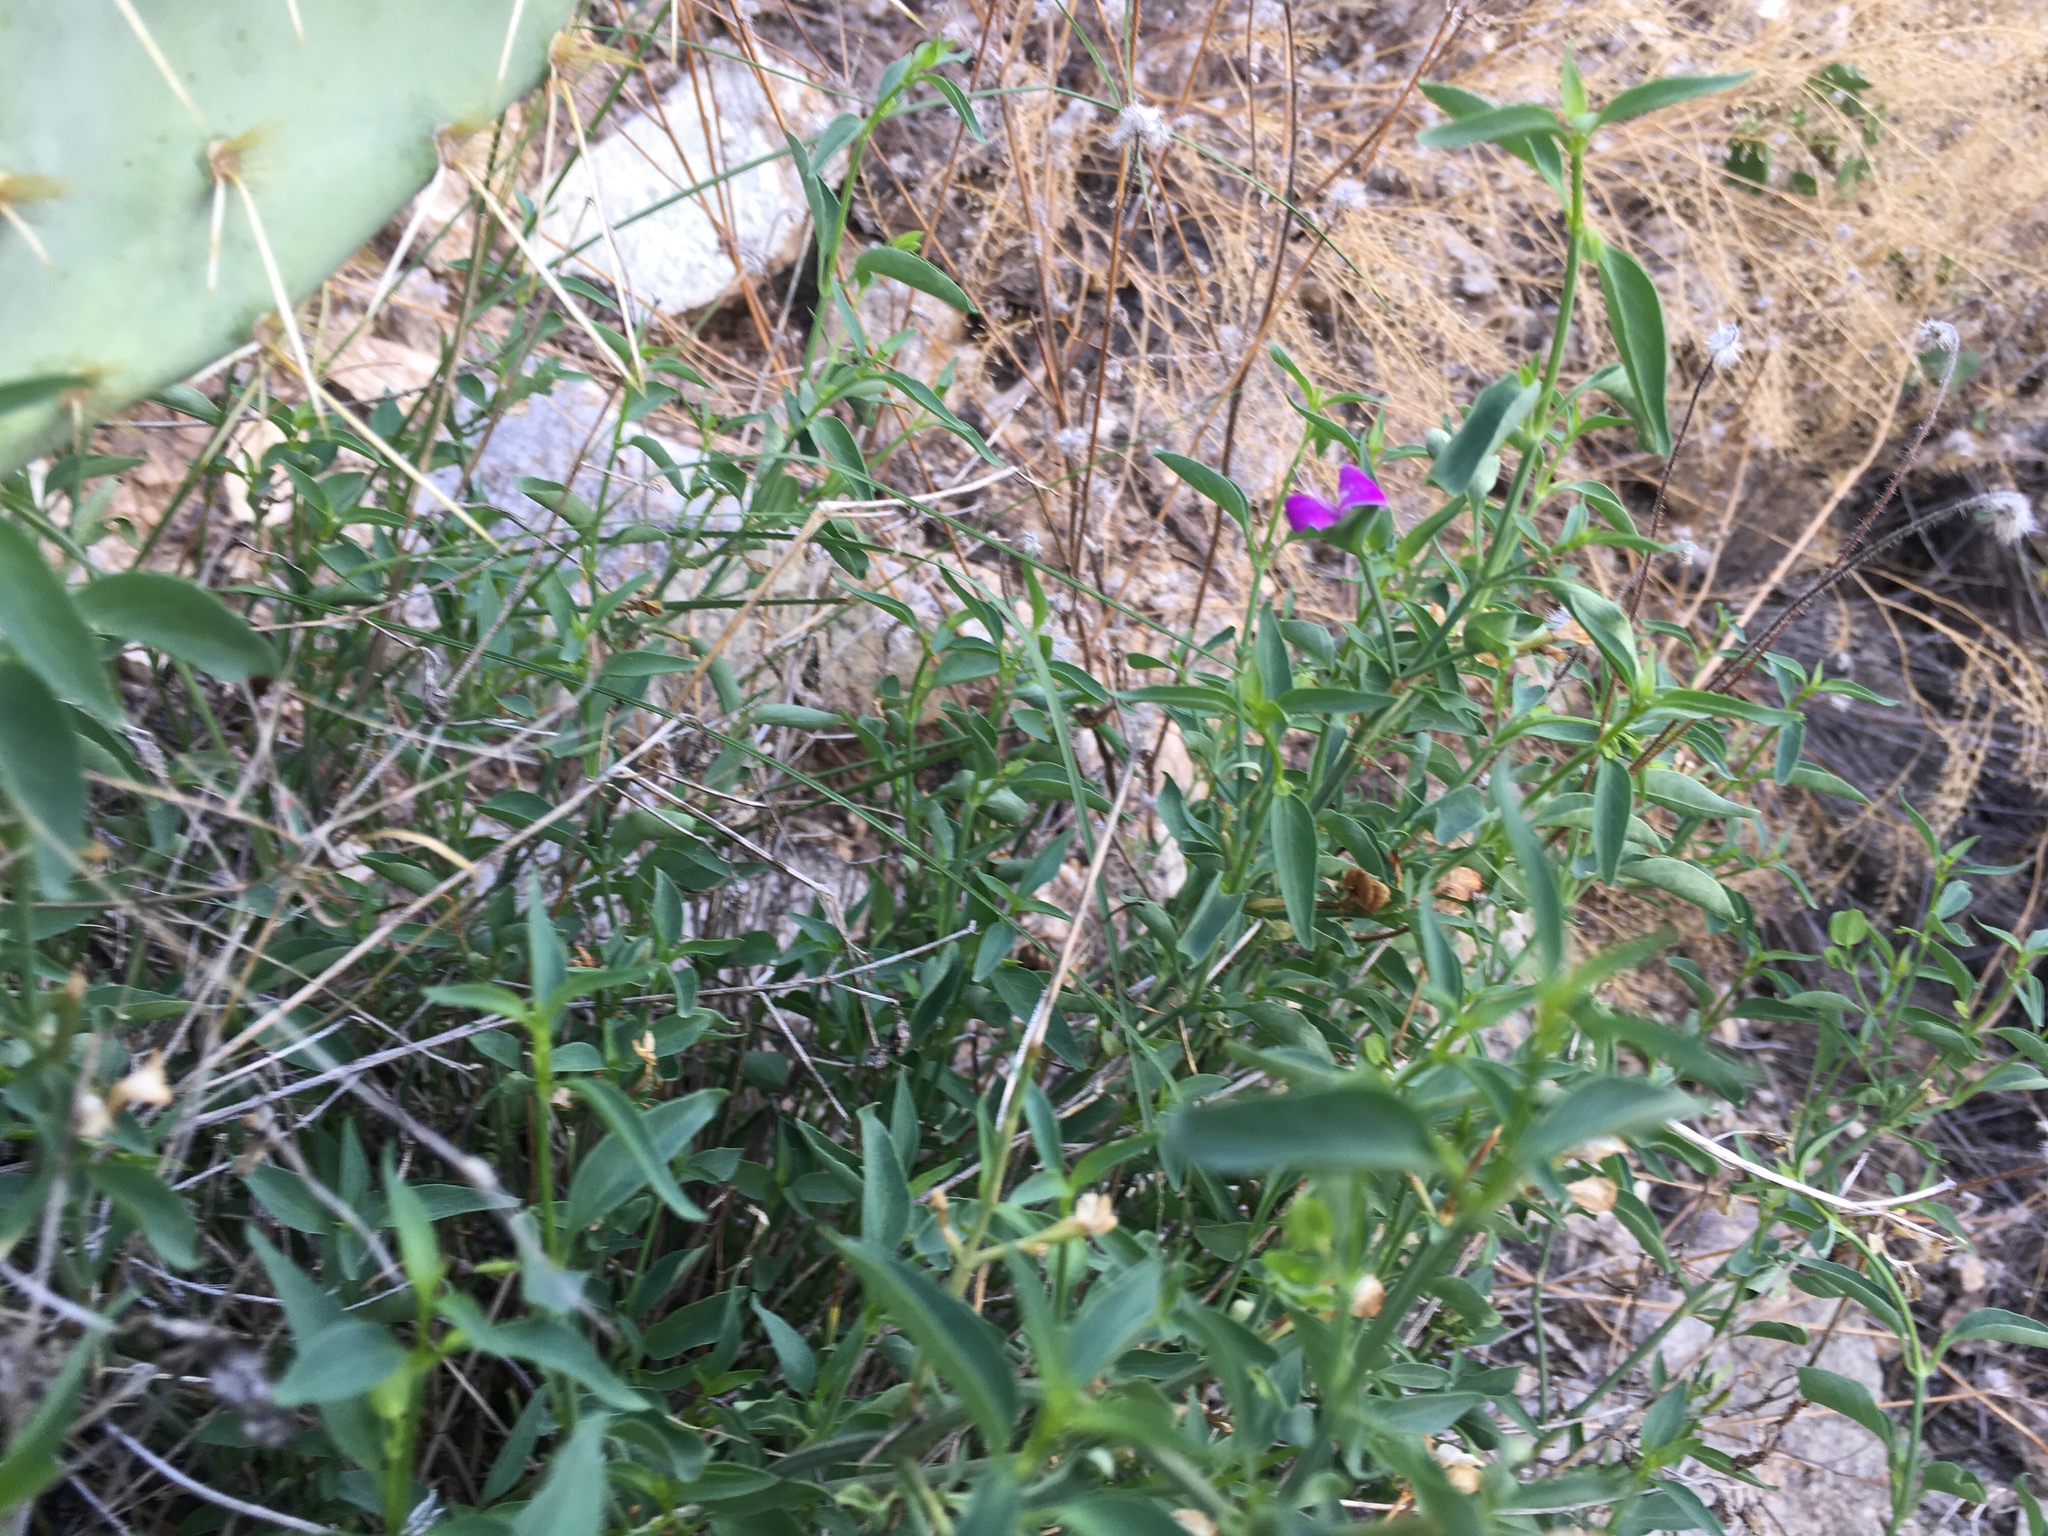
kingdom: Plantae
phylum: Tracheophyta
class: Magnoliopsida
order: Lamiales
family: Acanthaceae
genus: Dicliptera
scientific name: Dicliptera resupinata
